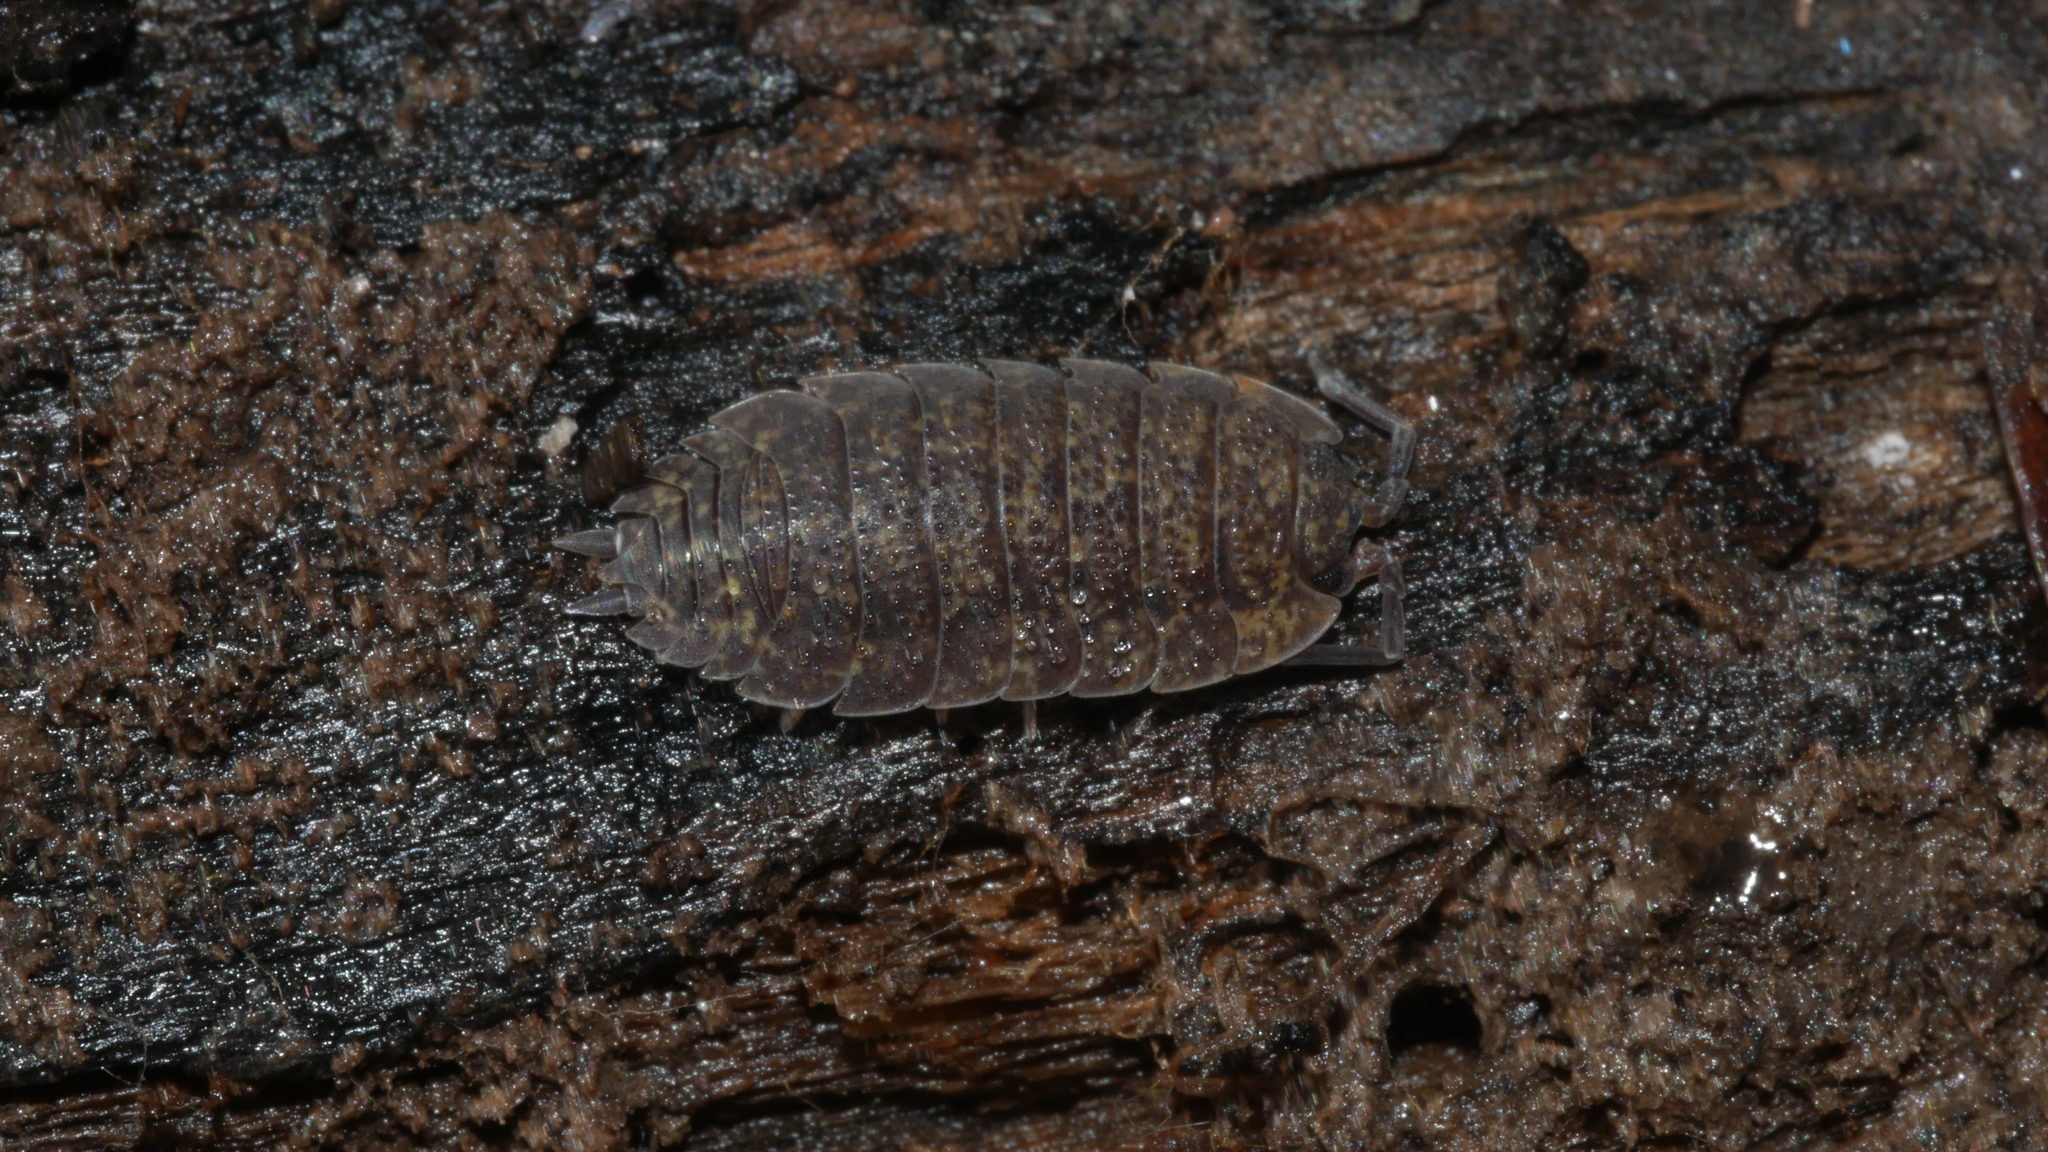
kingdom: Animalia
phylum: Arthropoda
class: Malacostraca
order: Isopoda
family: Porcellionidae
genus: Porcellio
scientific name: Porcellio scaber
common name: Common rough woodlouse
